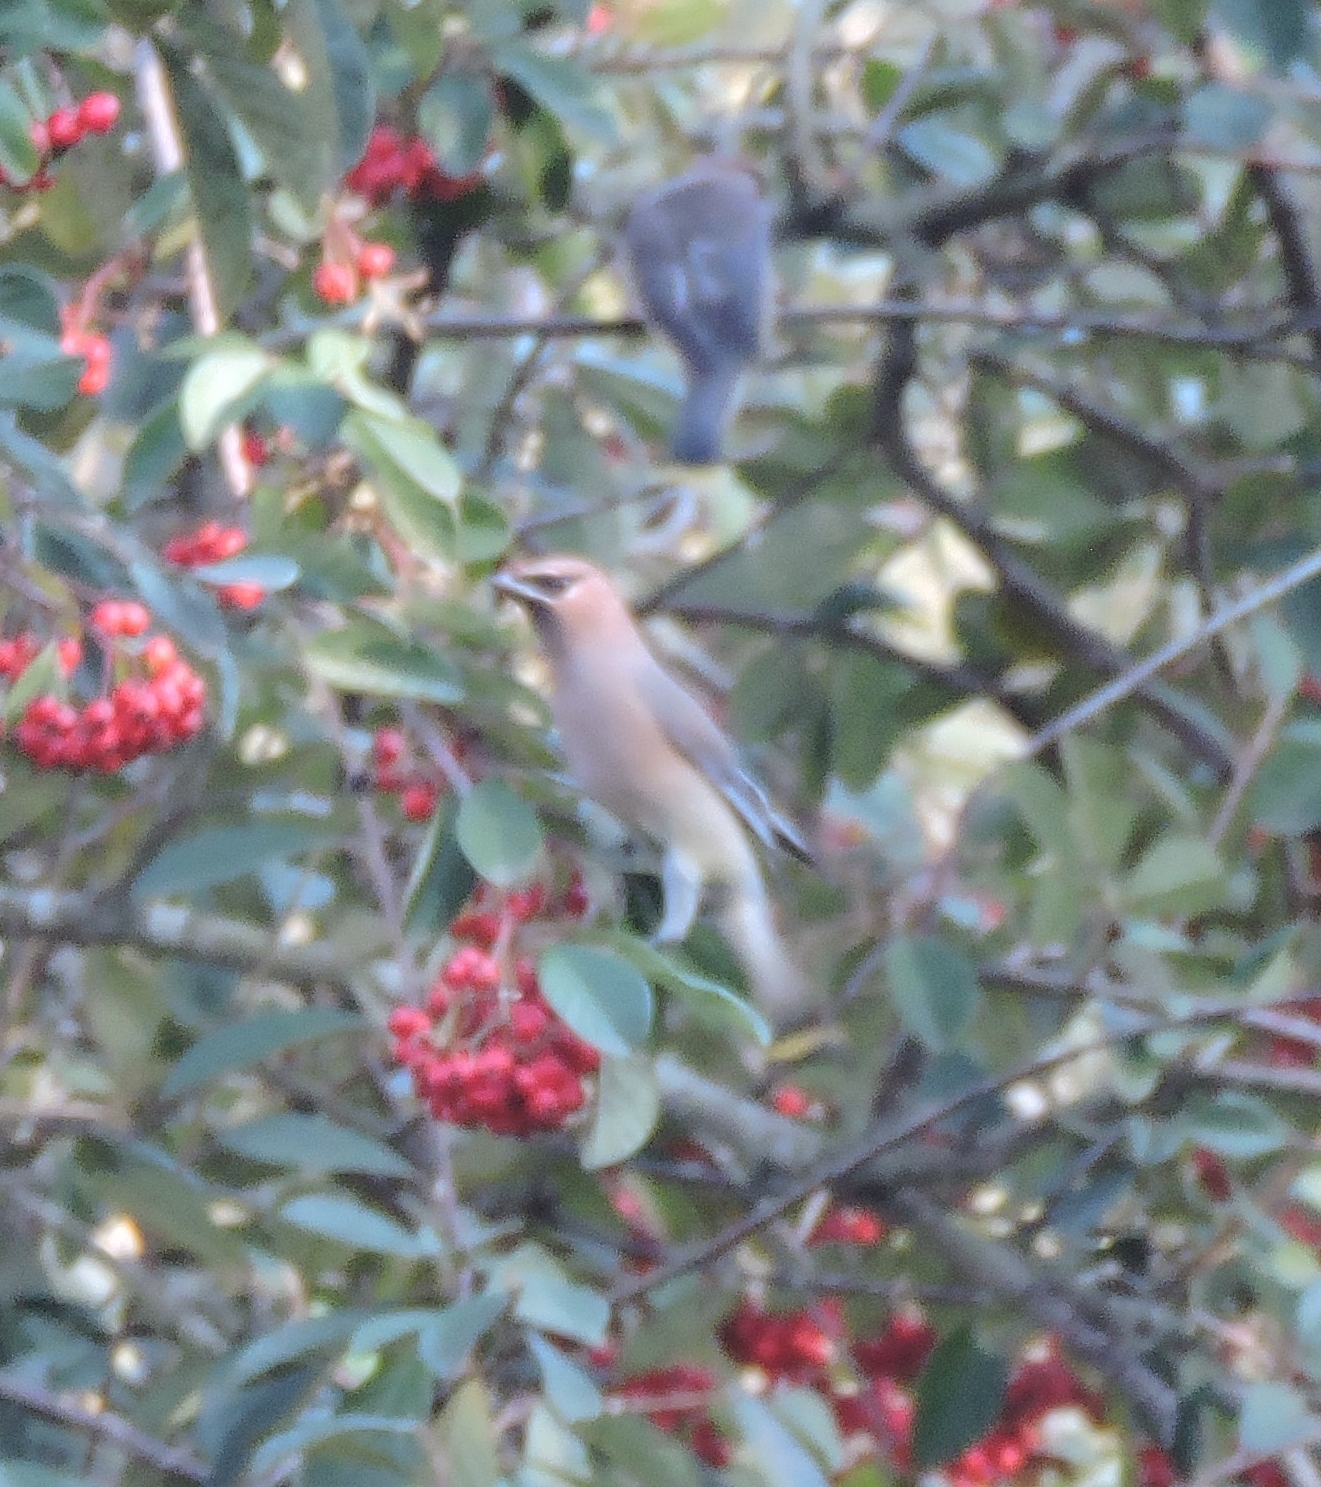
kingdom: Animalia
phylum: Chordata
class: Aves
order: Passeriformes
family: Bombycillidae
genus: Bombycilla
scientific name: Bombycilla cedrorum
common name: Cedar waxwing
